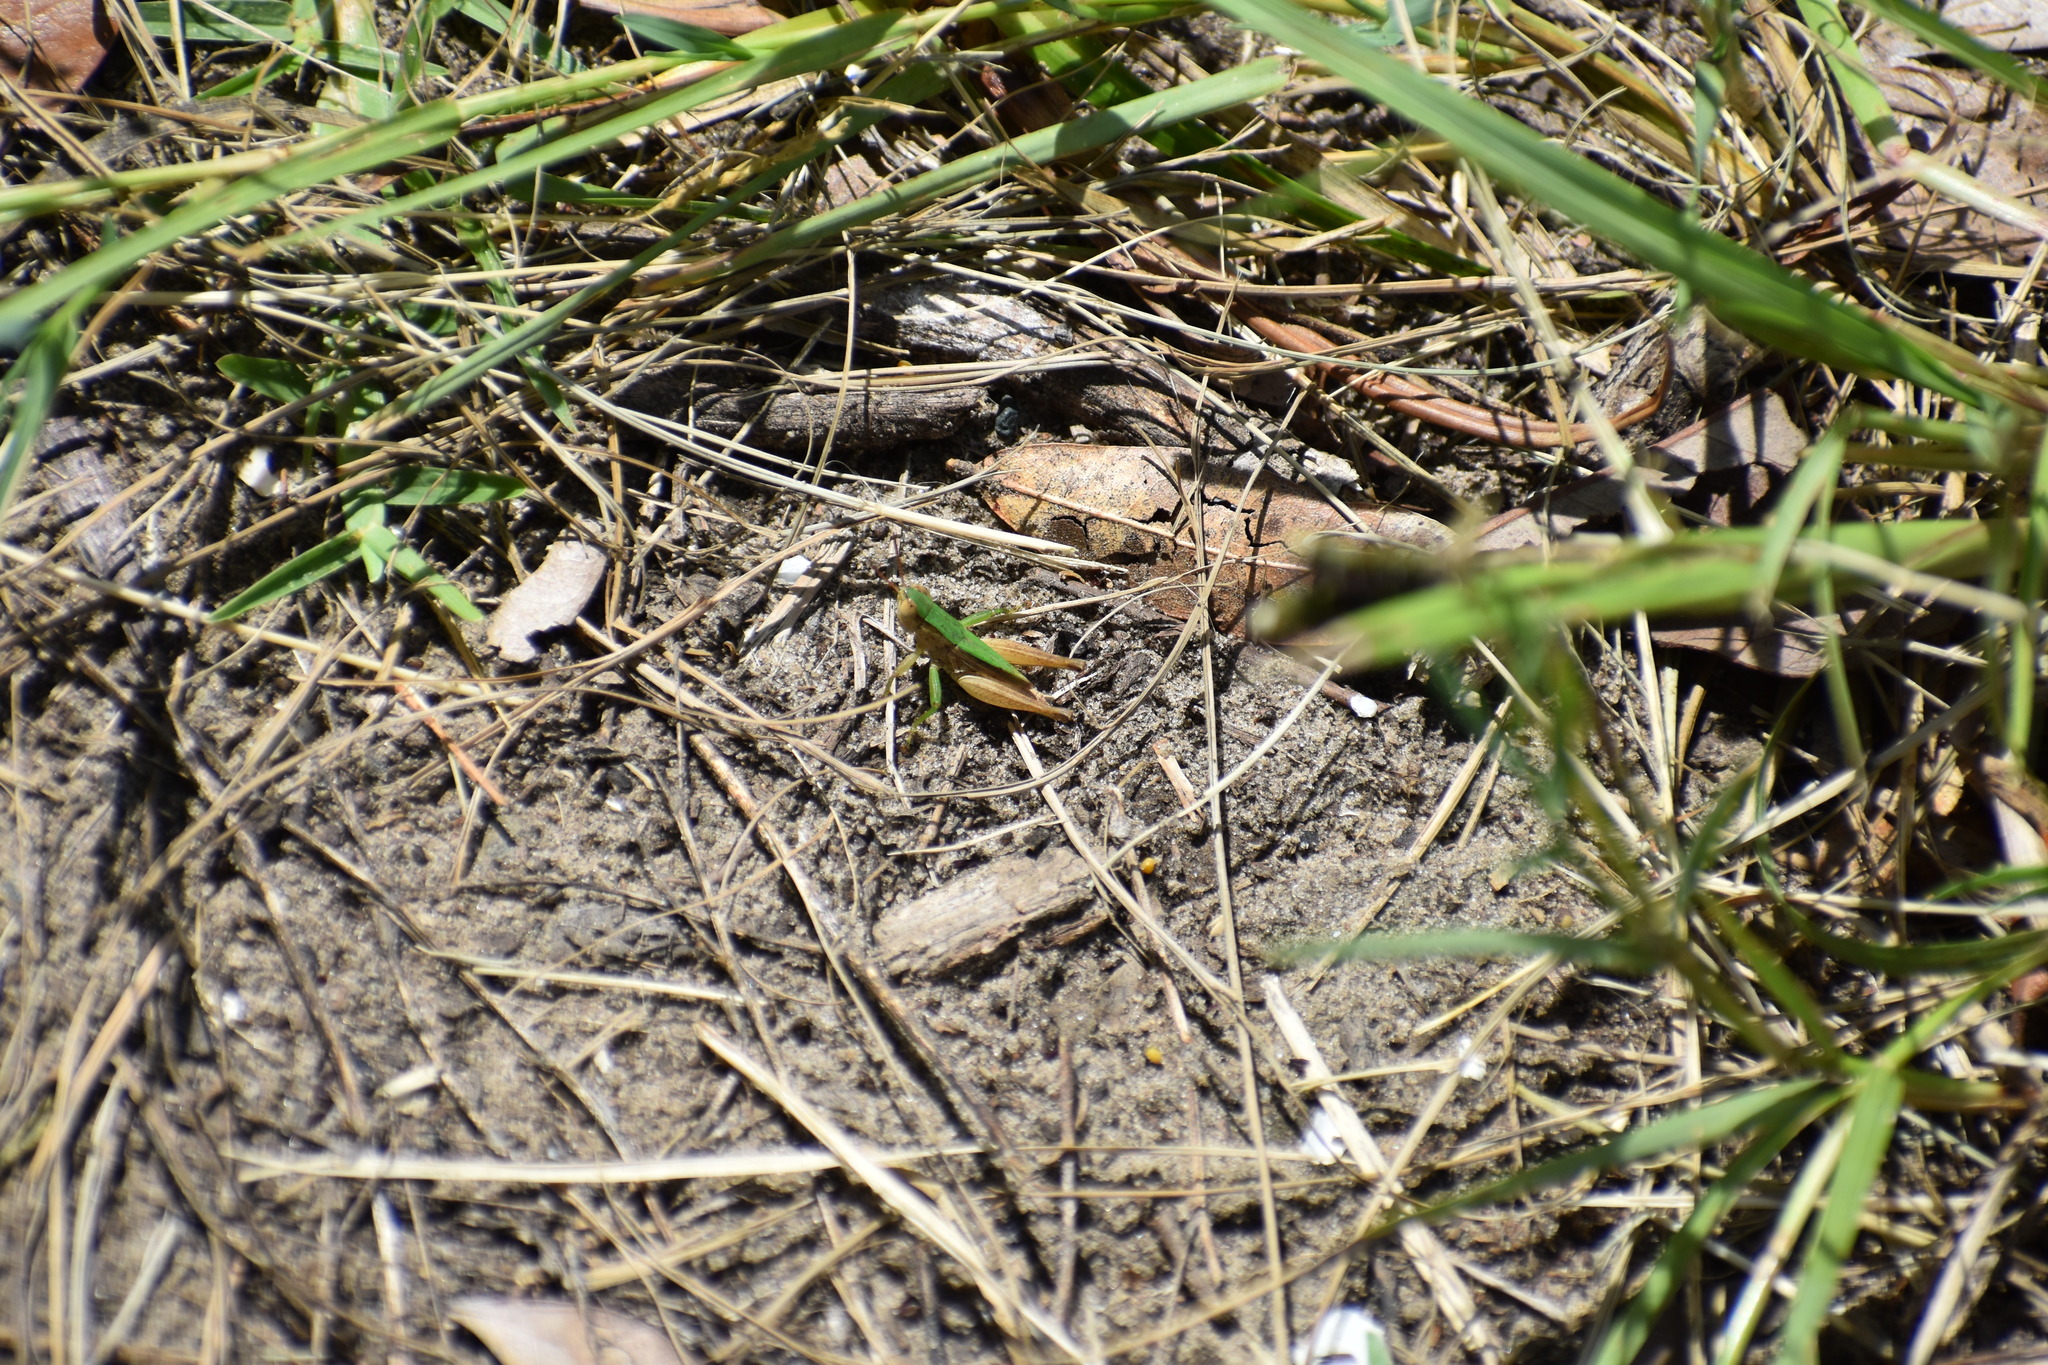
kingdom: Animalia
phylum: Arthropoda
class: Insecta
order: Orthoptera
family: Acrididae
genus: Dichromorpha
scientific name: Dichromorpha viridis
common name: Short-winged green grasshopper
